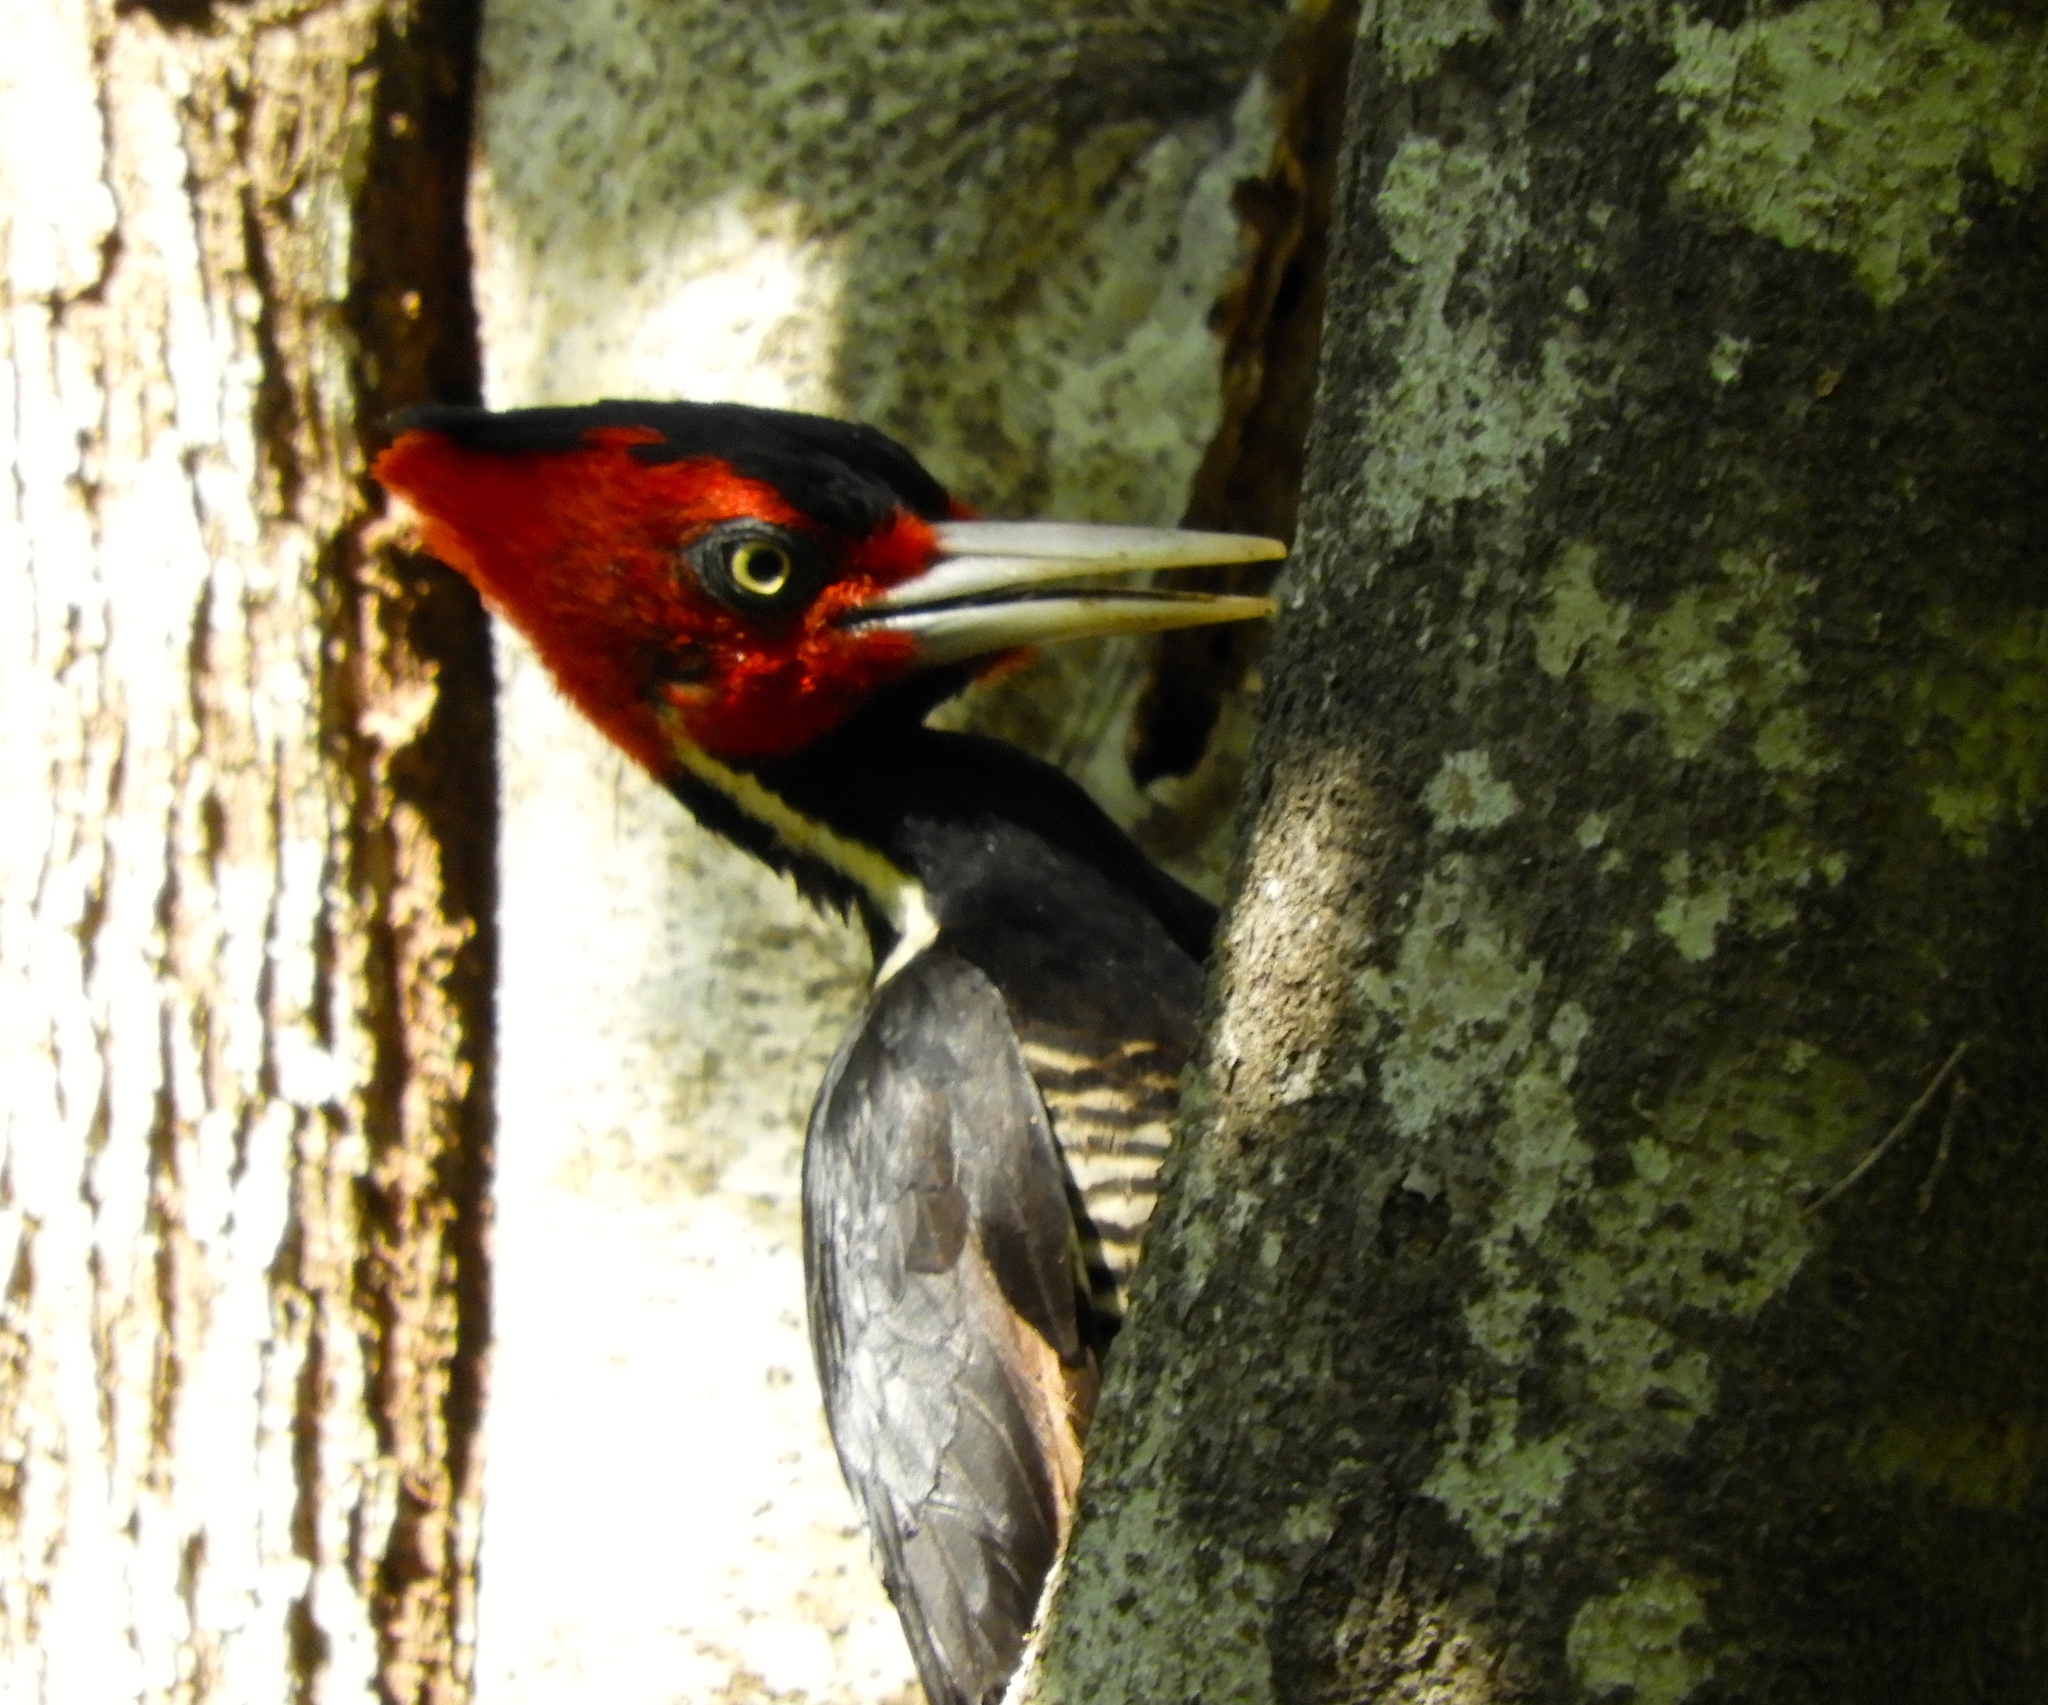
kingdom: Animalia
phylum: Chordata
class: Aves
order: Piciformes
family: Picidae
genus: Campephilus
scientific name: Campephilus guatemalensis
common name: Pale-billed woodpecker
